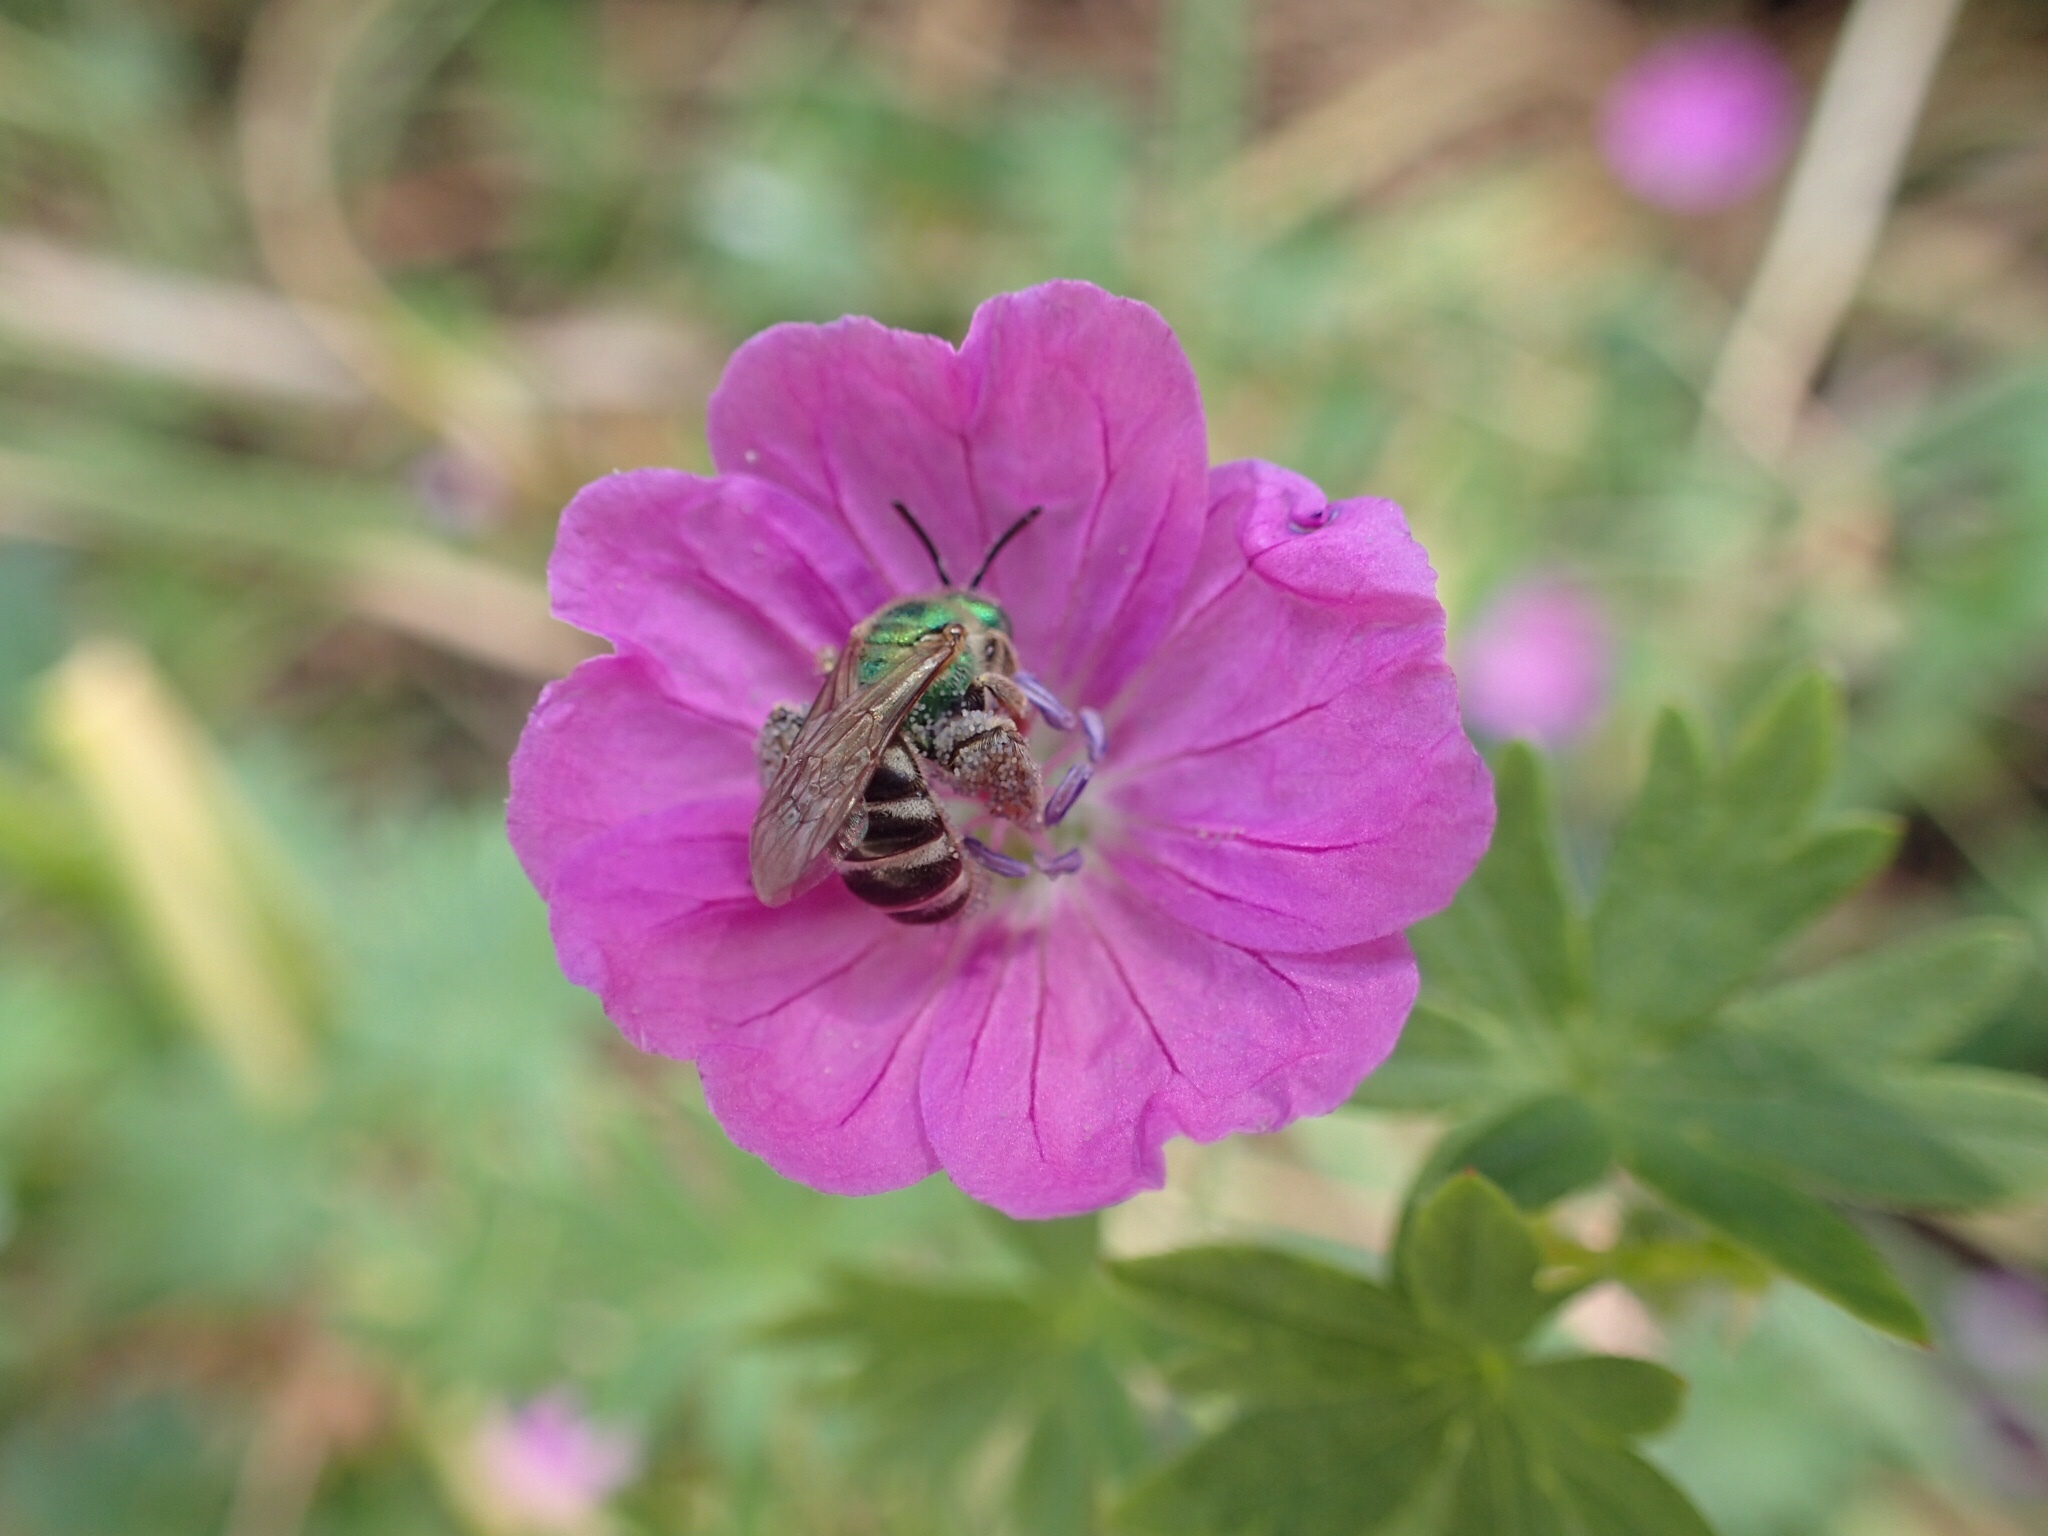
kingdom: Animalia
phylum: Arthropoda
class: Insecta
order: Hymenoptera
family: Halictidae
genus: Agapostemon
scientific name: Agapostemon virescens
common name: Bicolored striped sweat bee
